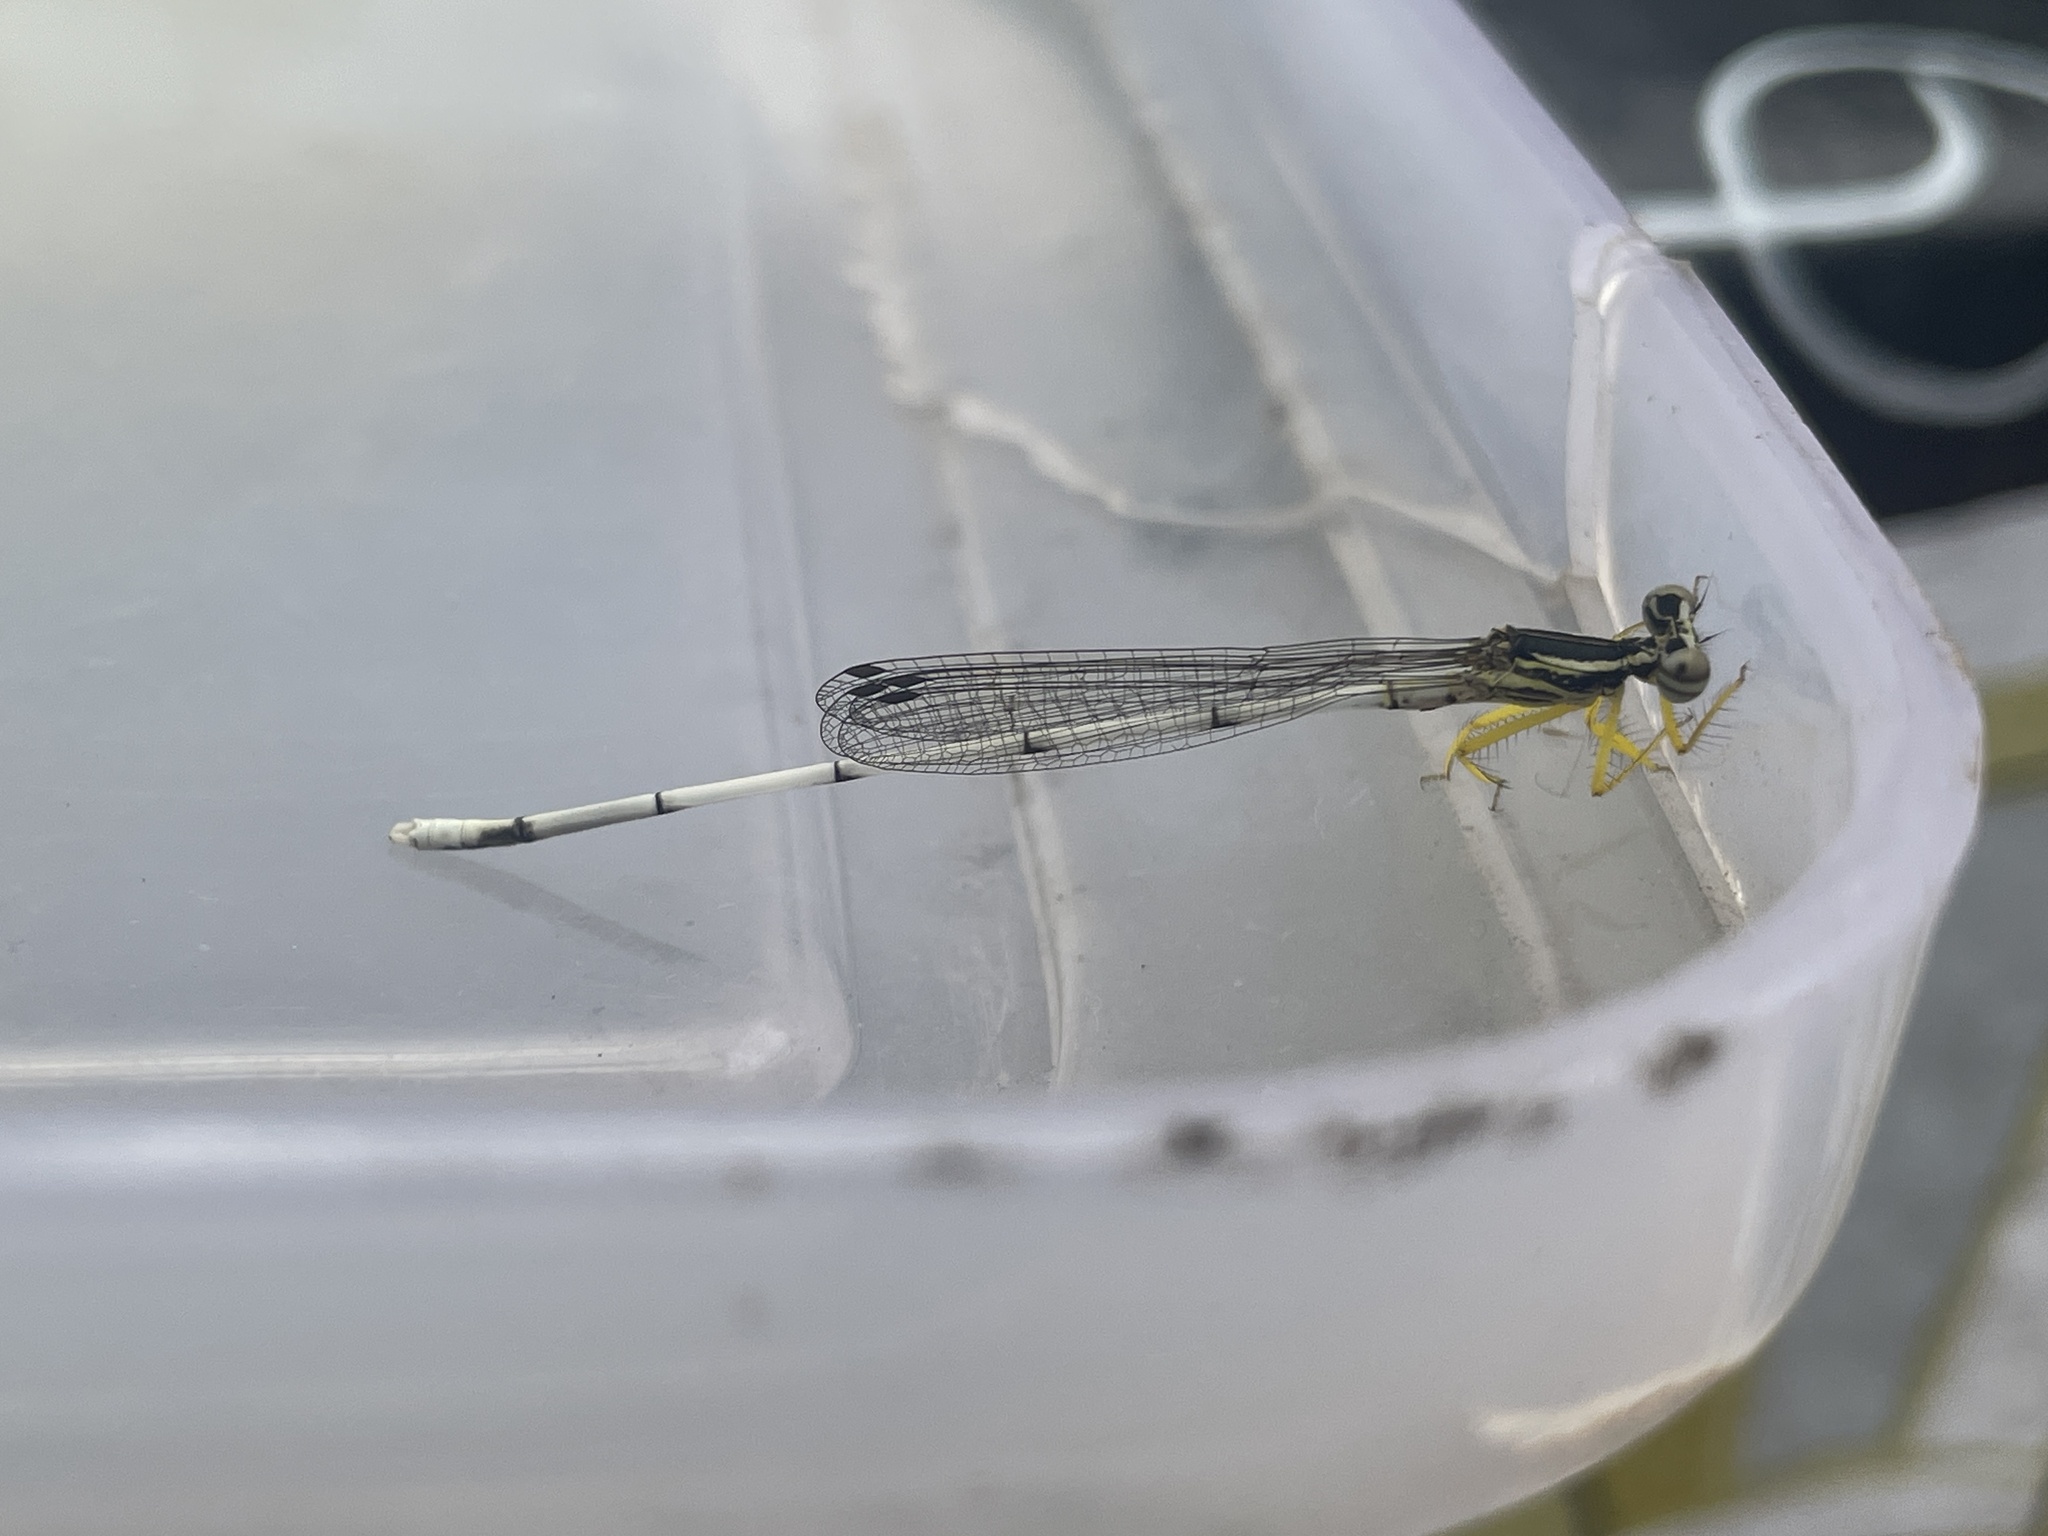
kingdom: Animalia
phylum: Arthropoda
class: Insecta
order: Odonata
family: Platycnemididae
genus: Copera
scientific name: Copera marginipes
